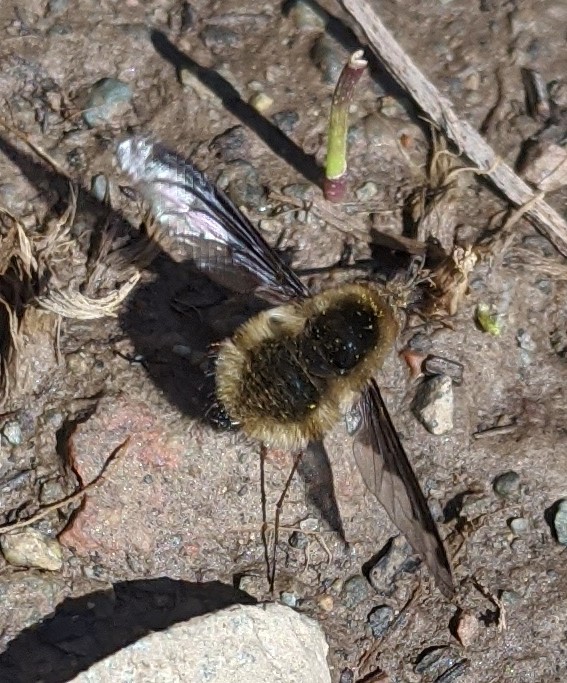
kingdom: Animalia
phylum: Arthropoda
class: Insecta
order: Diptera
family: Bombyliidae
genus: Bombylius
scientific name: Bombylius major
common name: Bee fly
